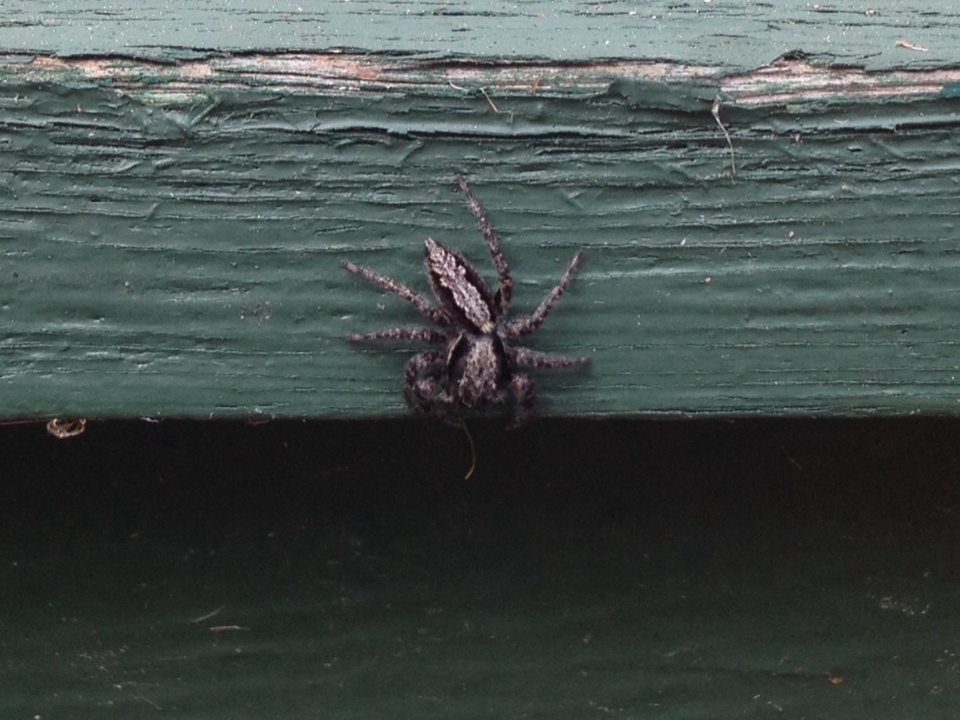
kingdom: Animalia
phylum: Arthropoda
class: Arachnida
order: Araneae
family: Salticidae
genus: Platycryptus
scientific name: Platycryptus californicus
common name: Jumping spiders
